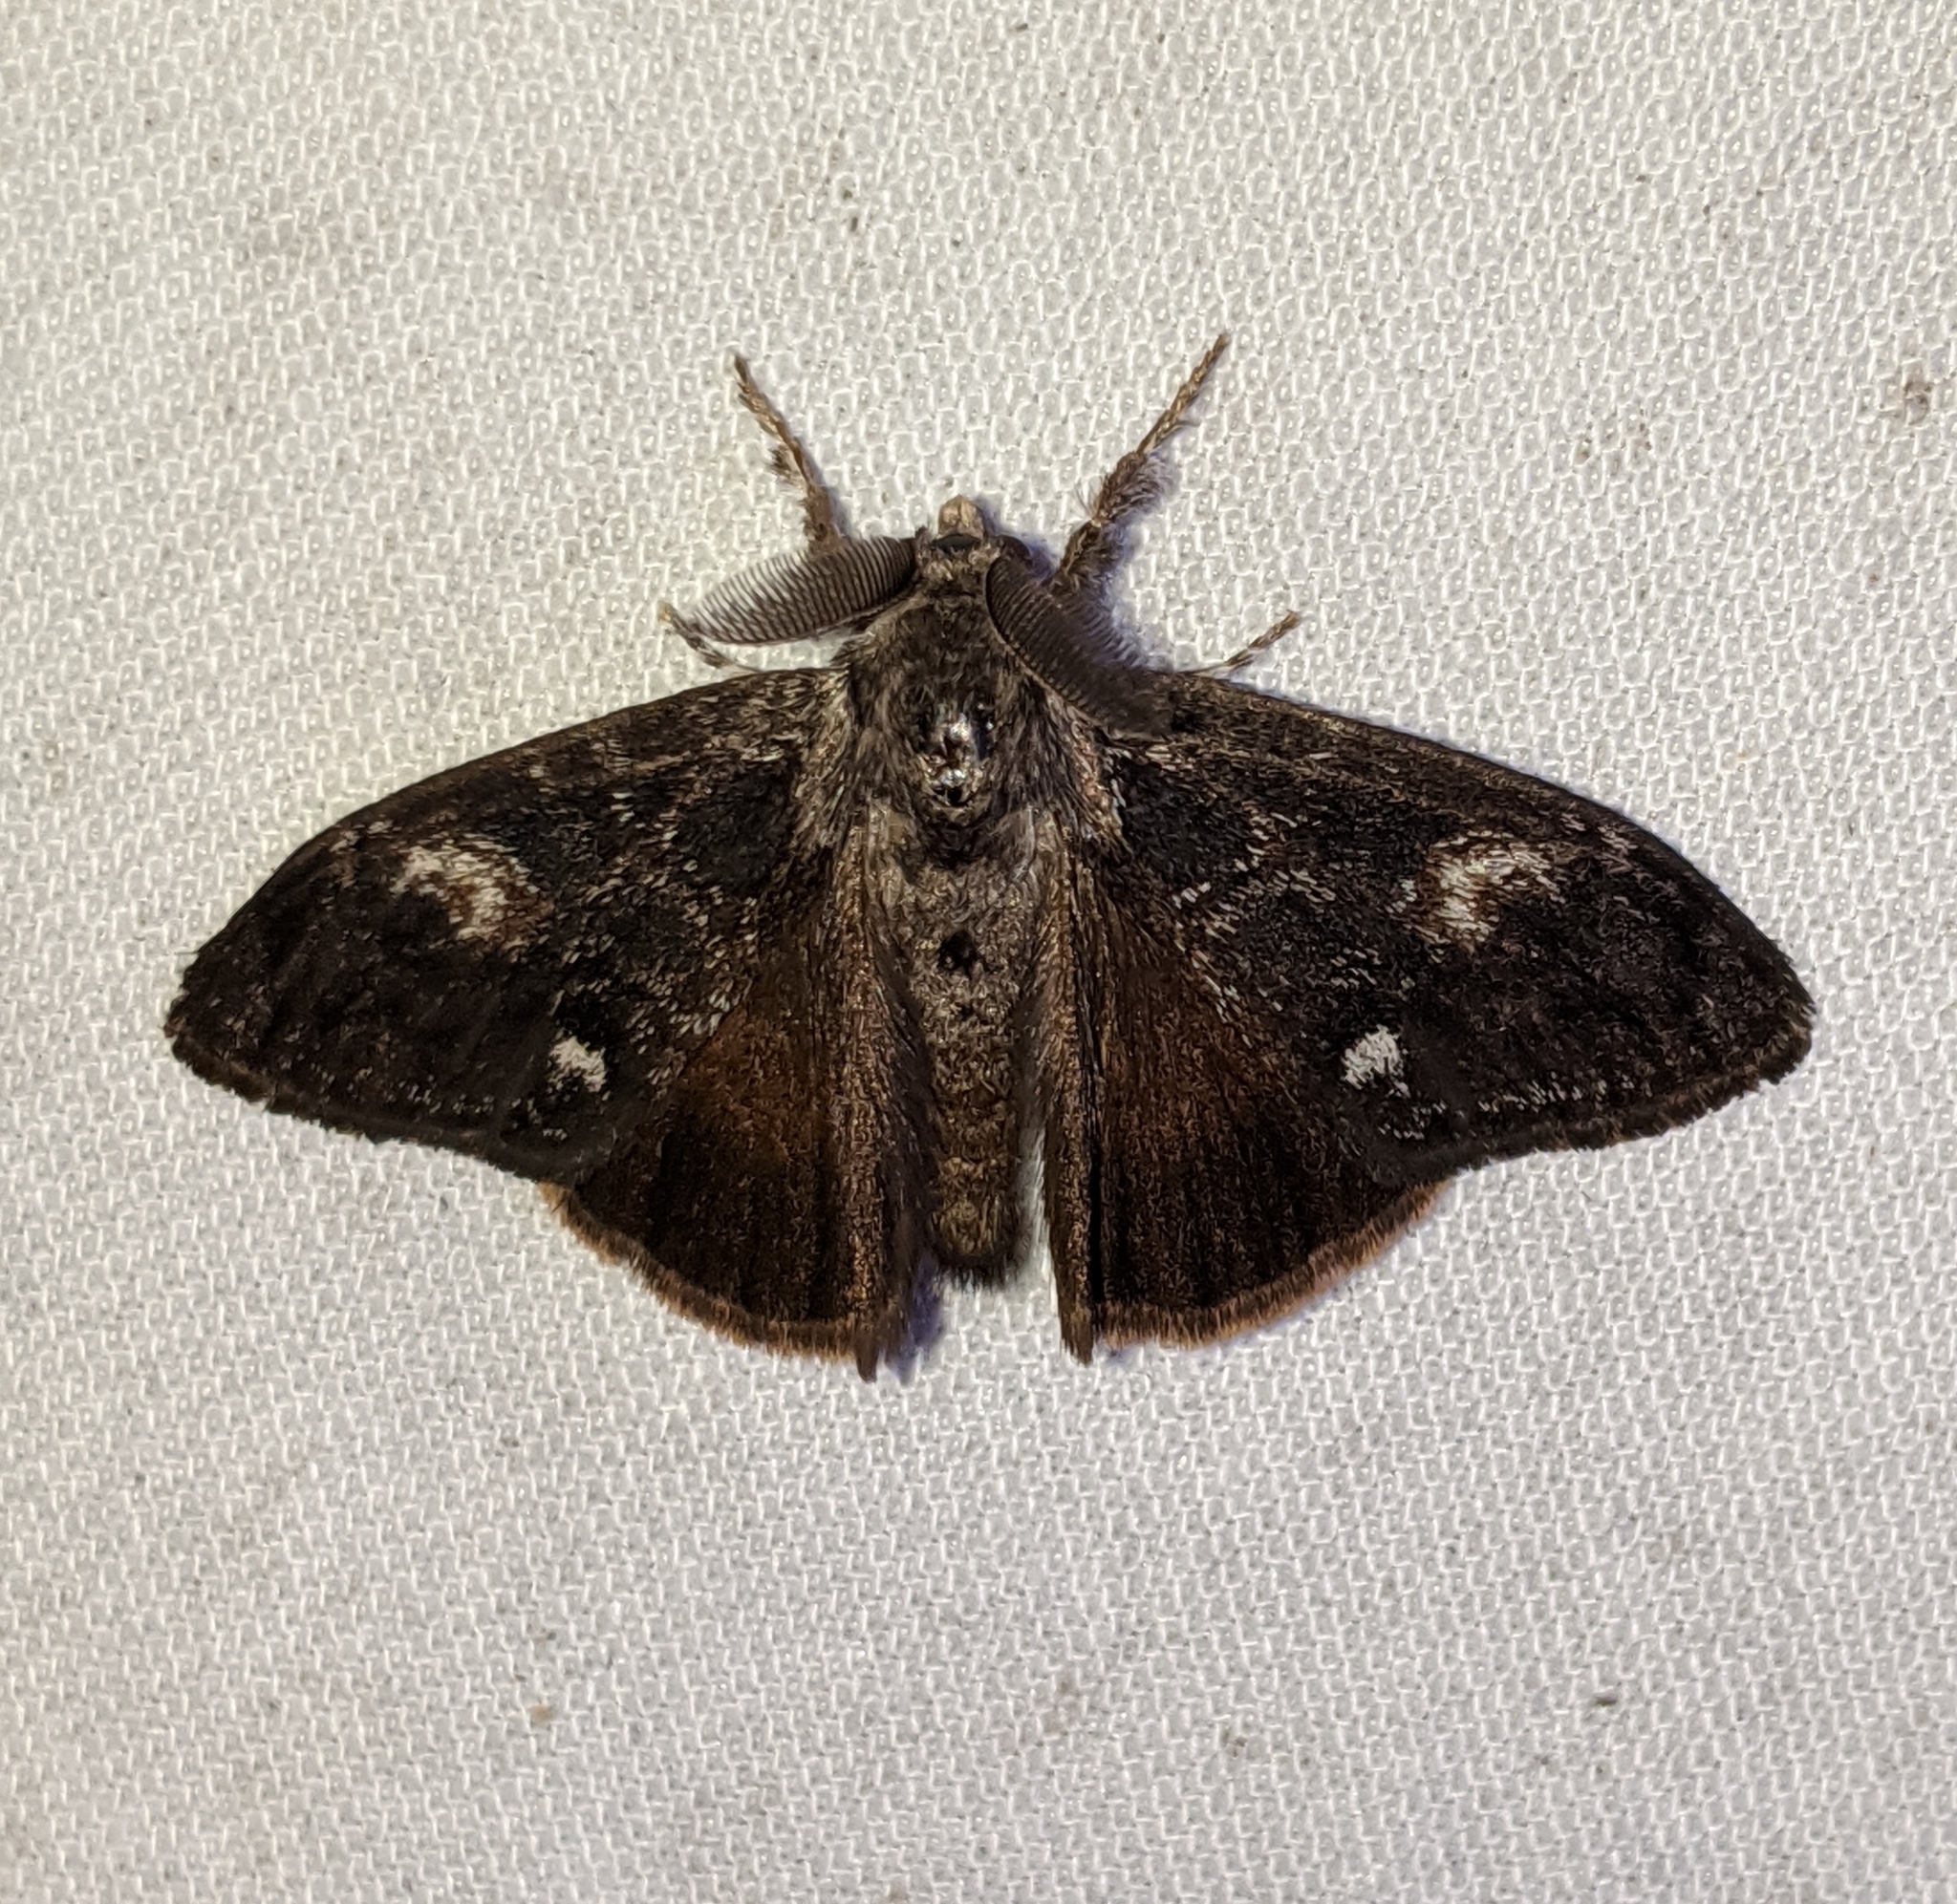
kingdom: Animalia
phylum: Arthropoda
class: Insecta
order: Lepidoptera
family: Erebidae
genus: Orgyia
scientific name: Orgyia pseudotsugata
